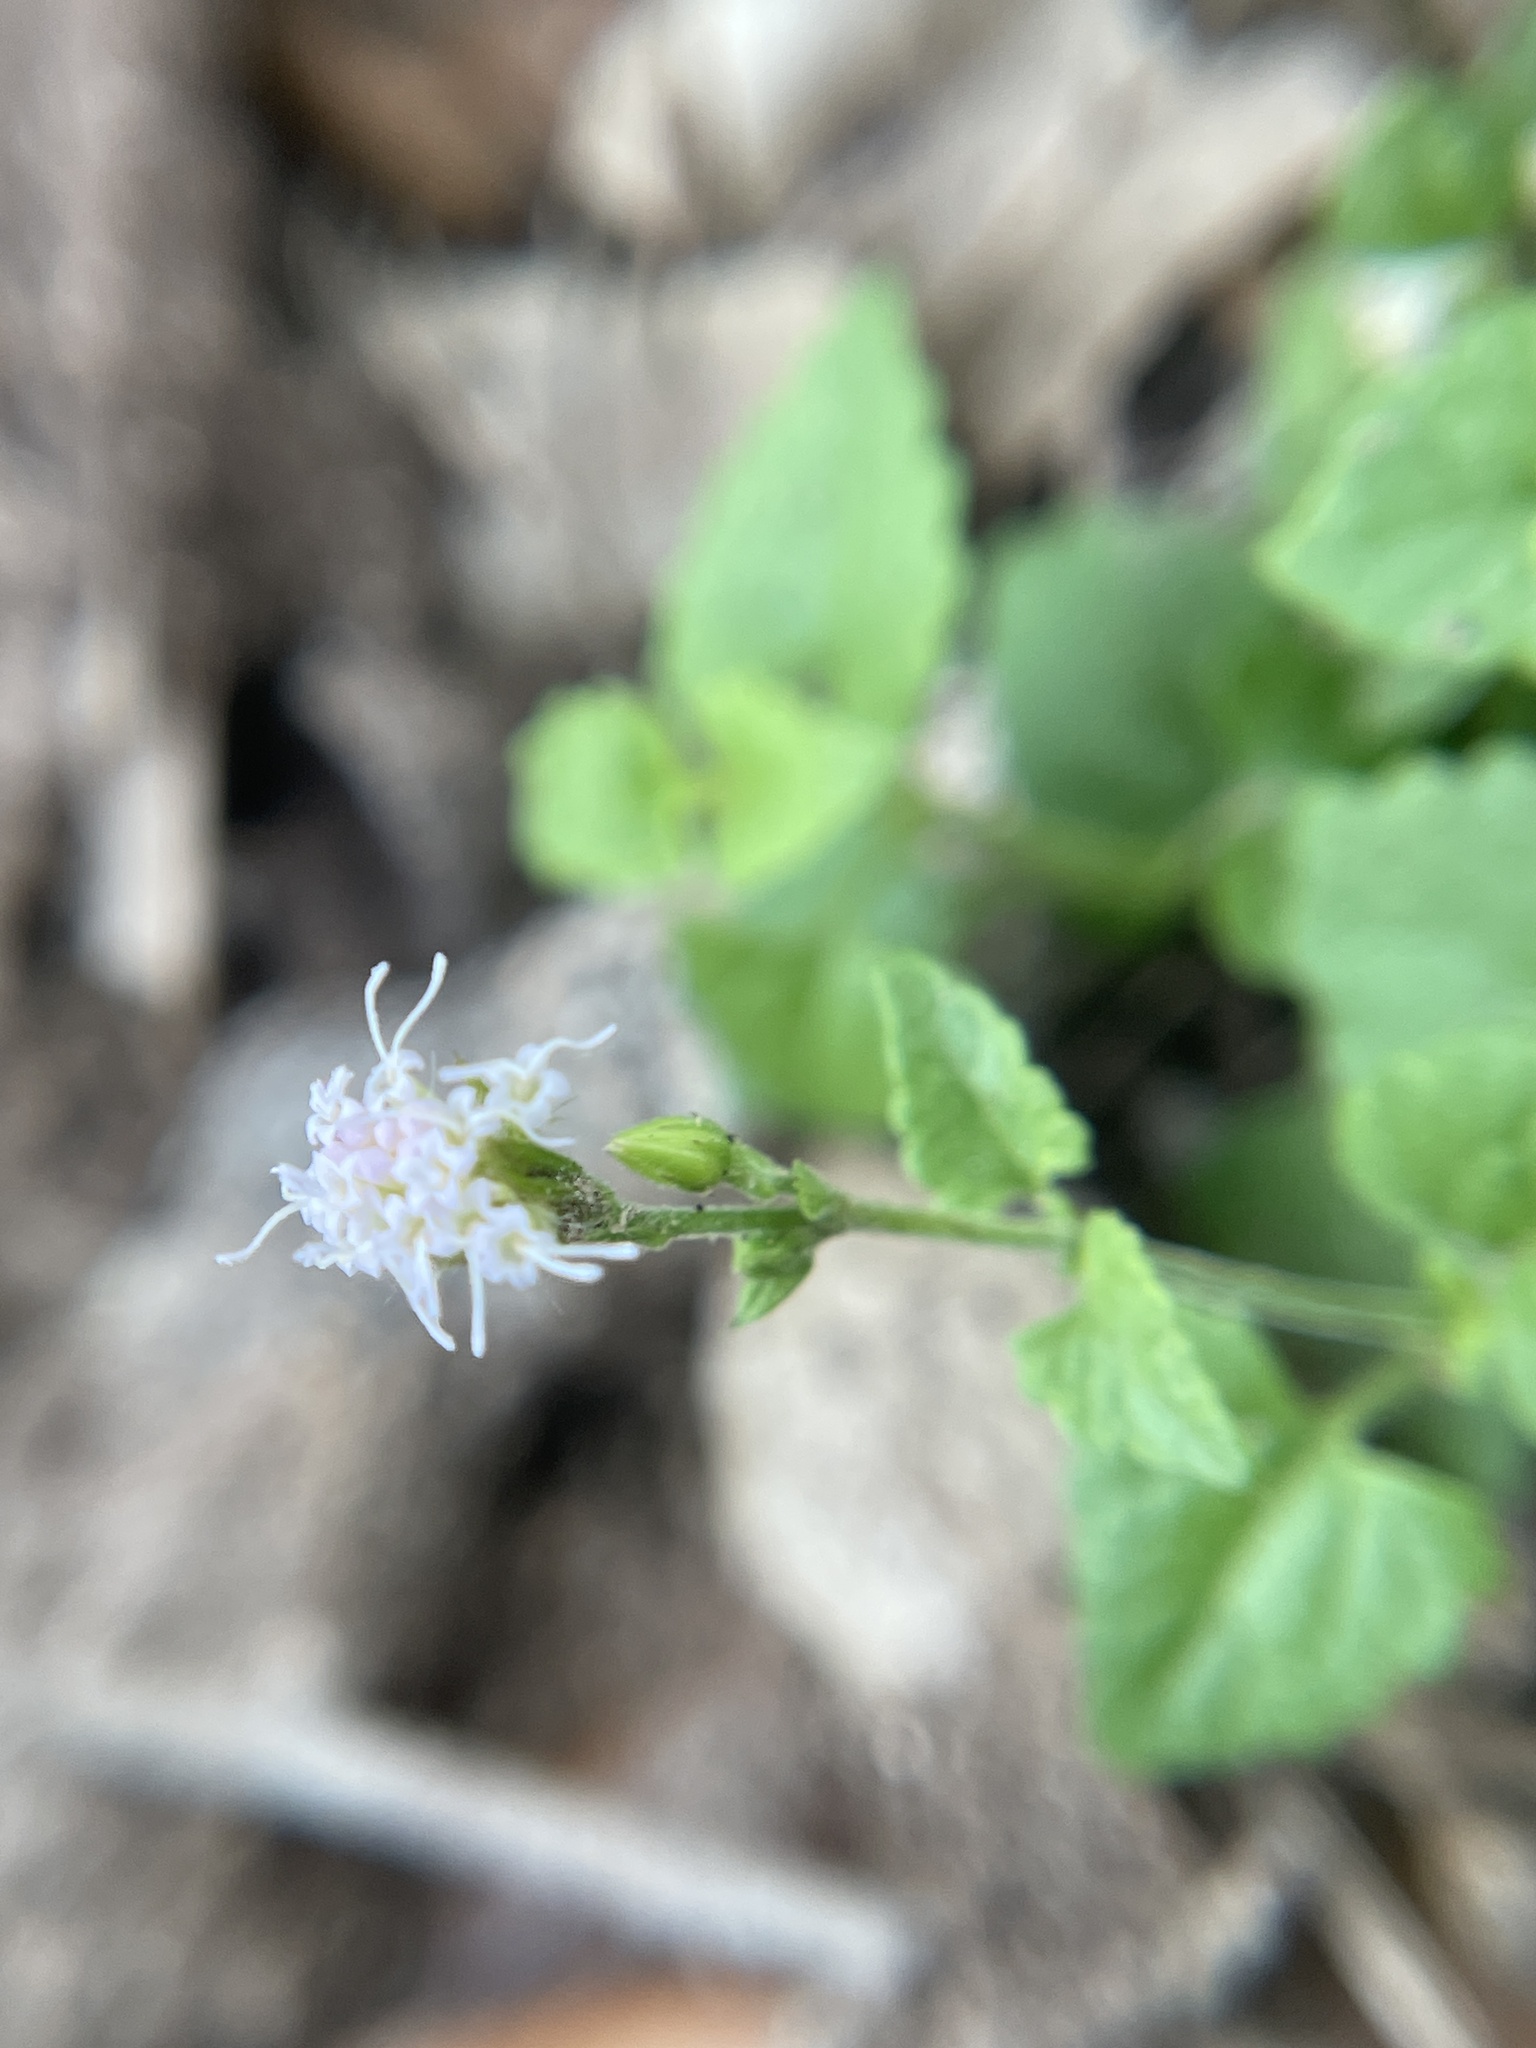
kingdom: Plantae
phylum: Tracheophyta
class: Magnoliopsida
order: Asterales
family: Asteraceae
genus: Fleischmannia
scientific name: Fleischmannia incarnata
